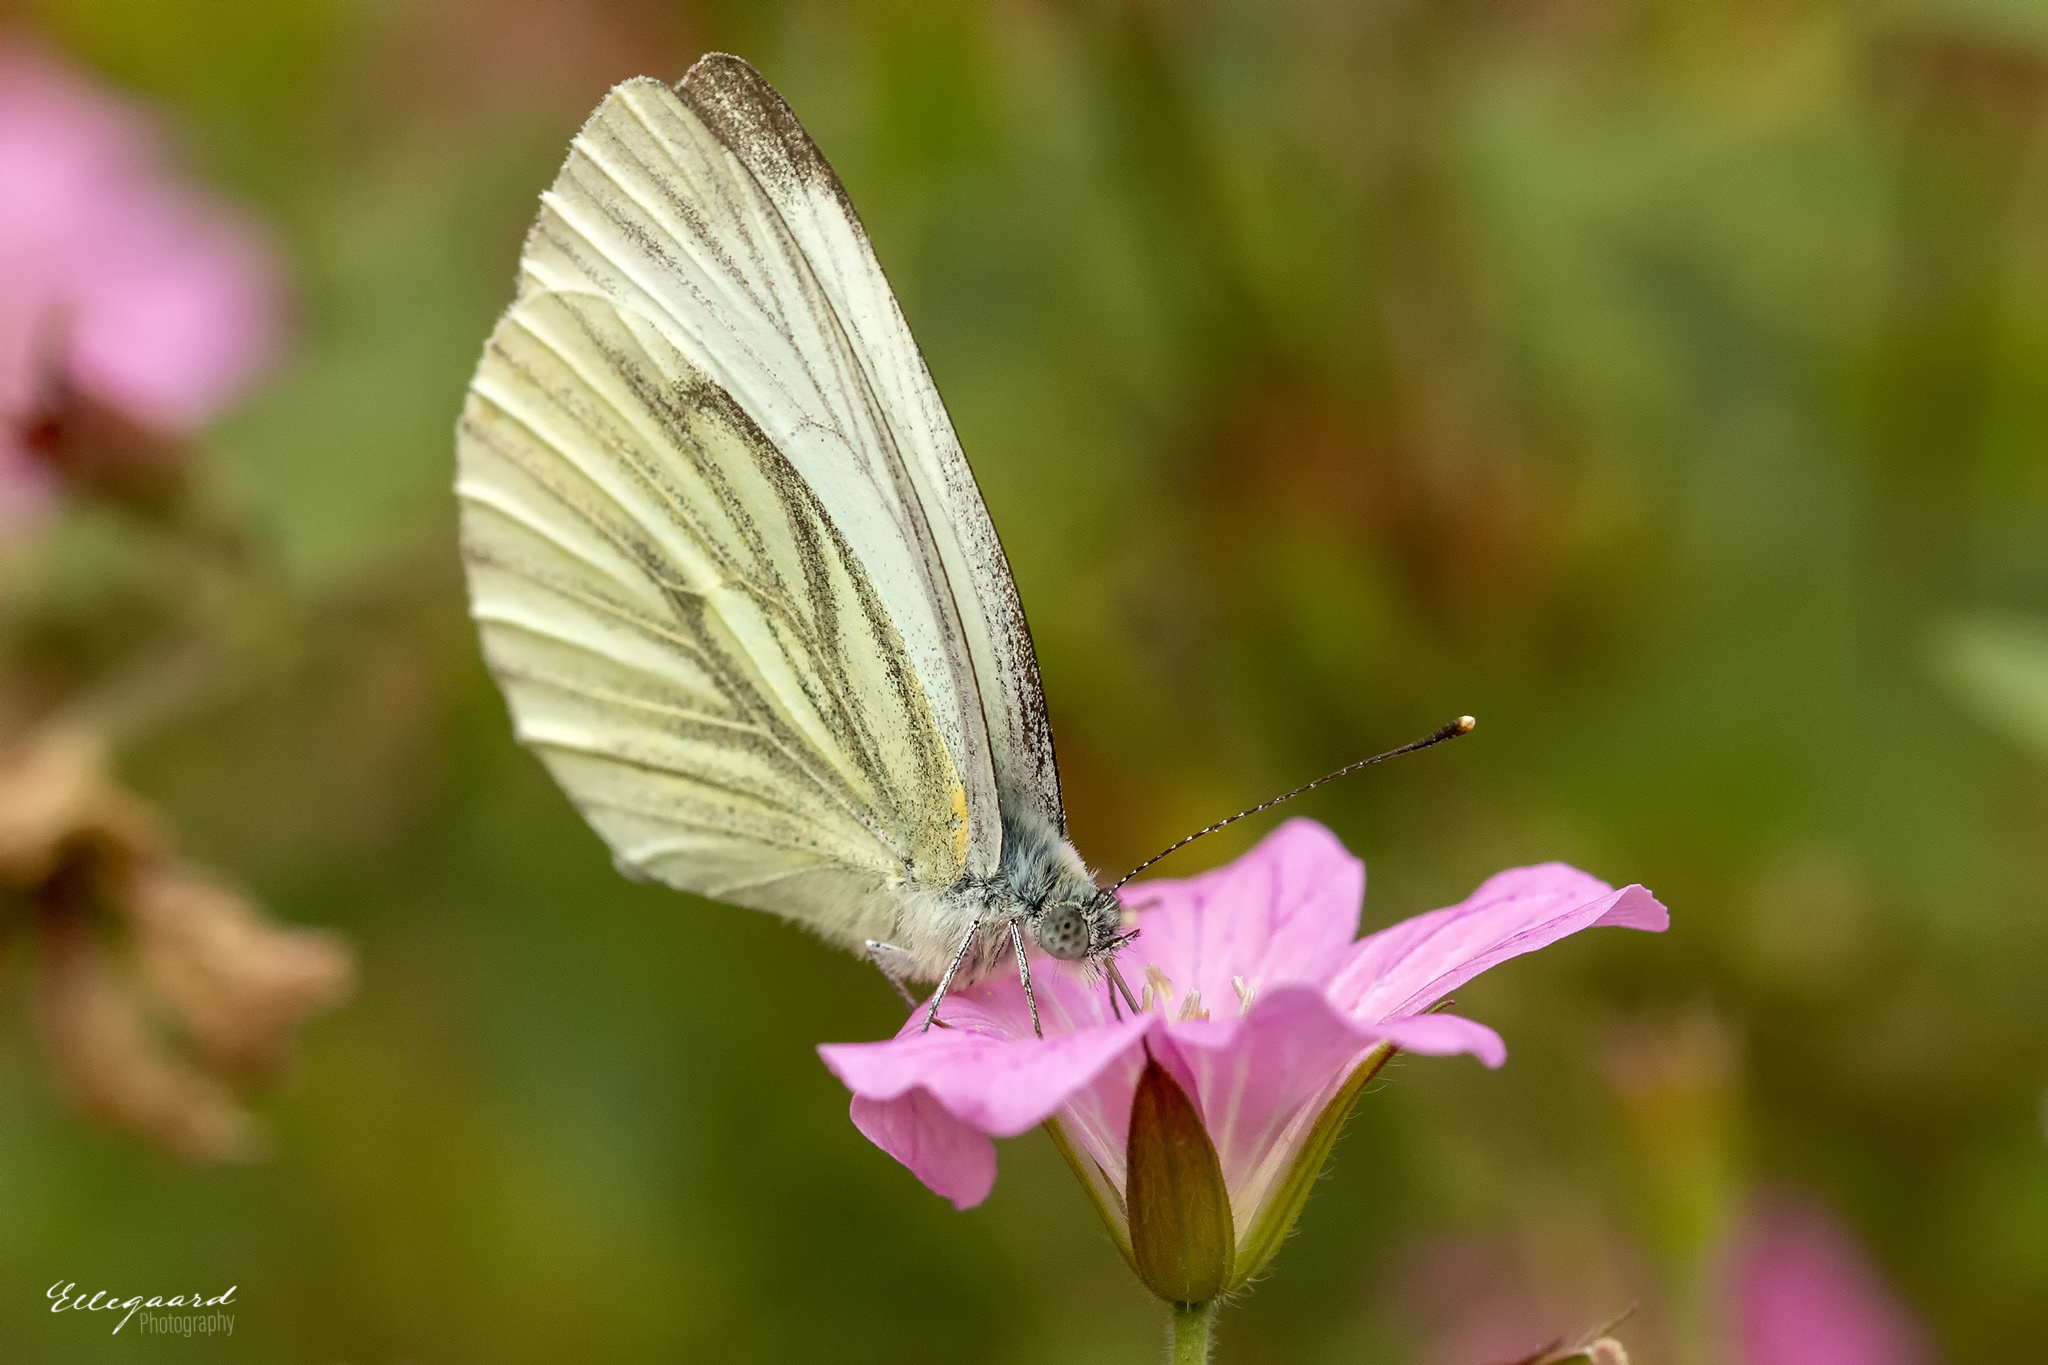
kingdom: Animalia
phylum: Arthropoda
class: Insecta
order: Lepidoptera
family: Pieridae
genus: Pieris
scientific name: Pieris napi
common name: Green-veined white
